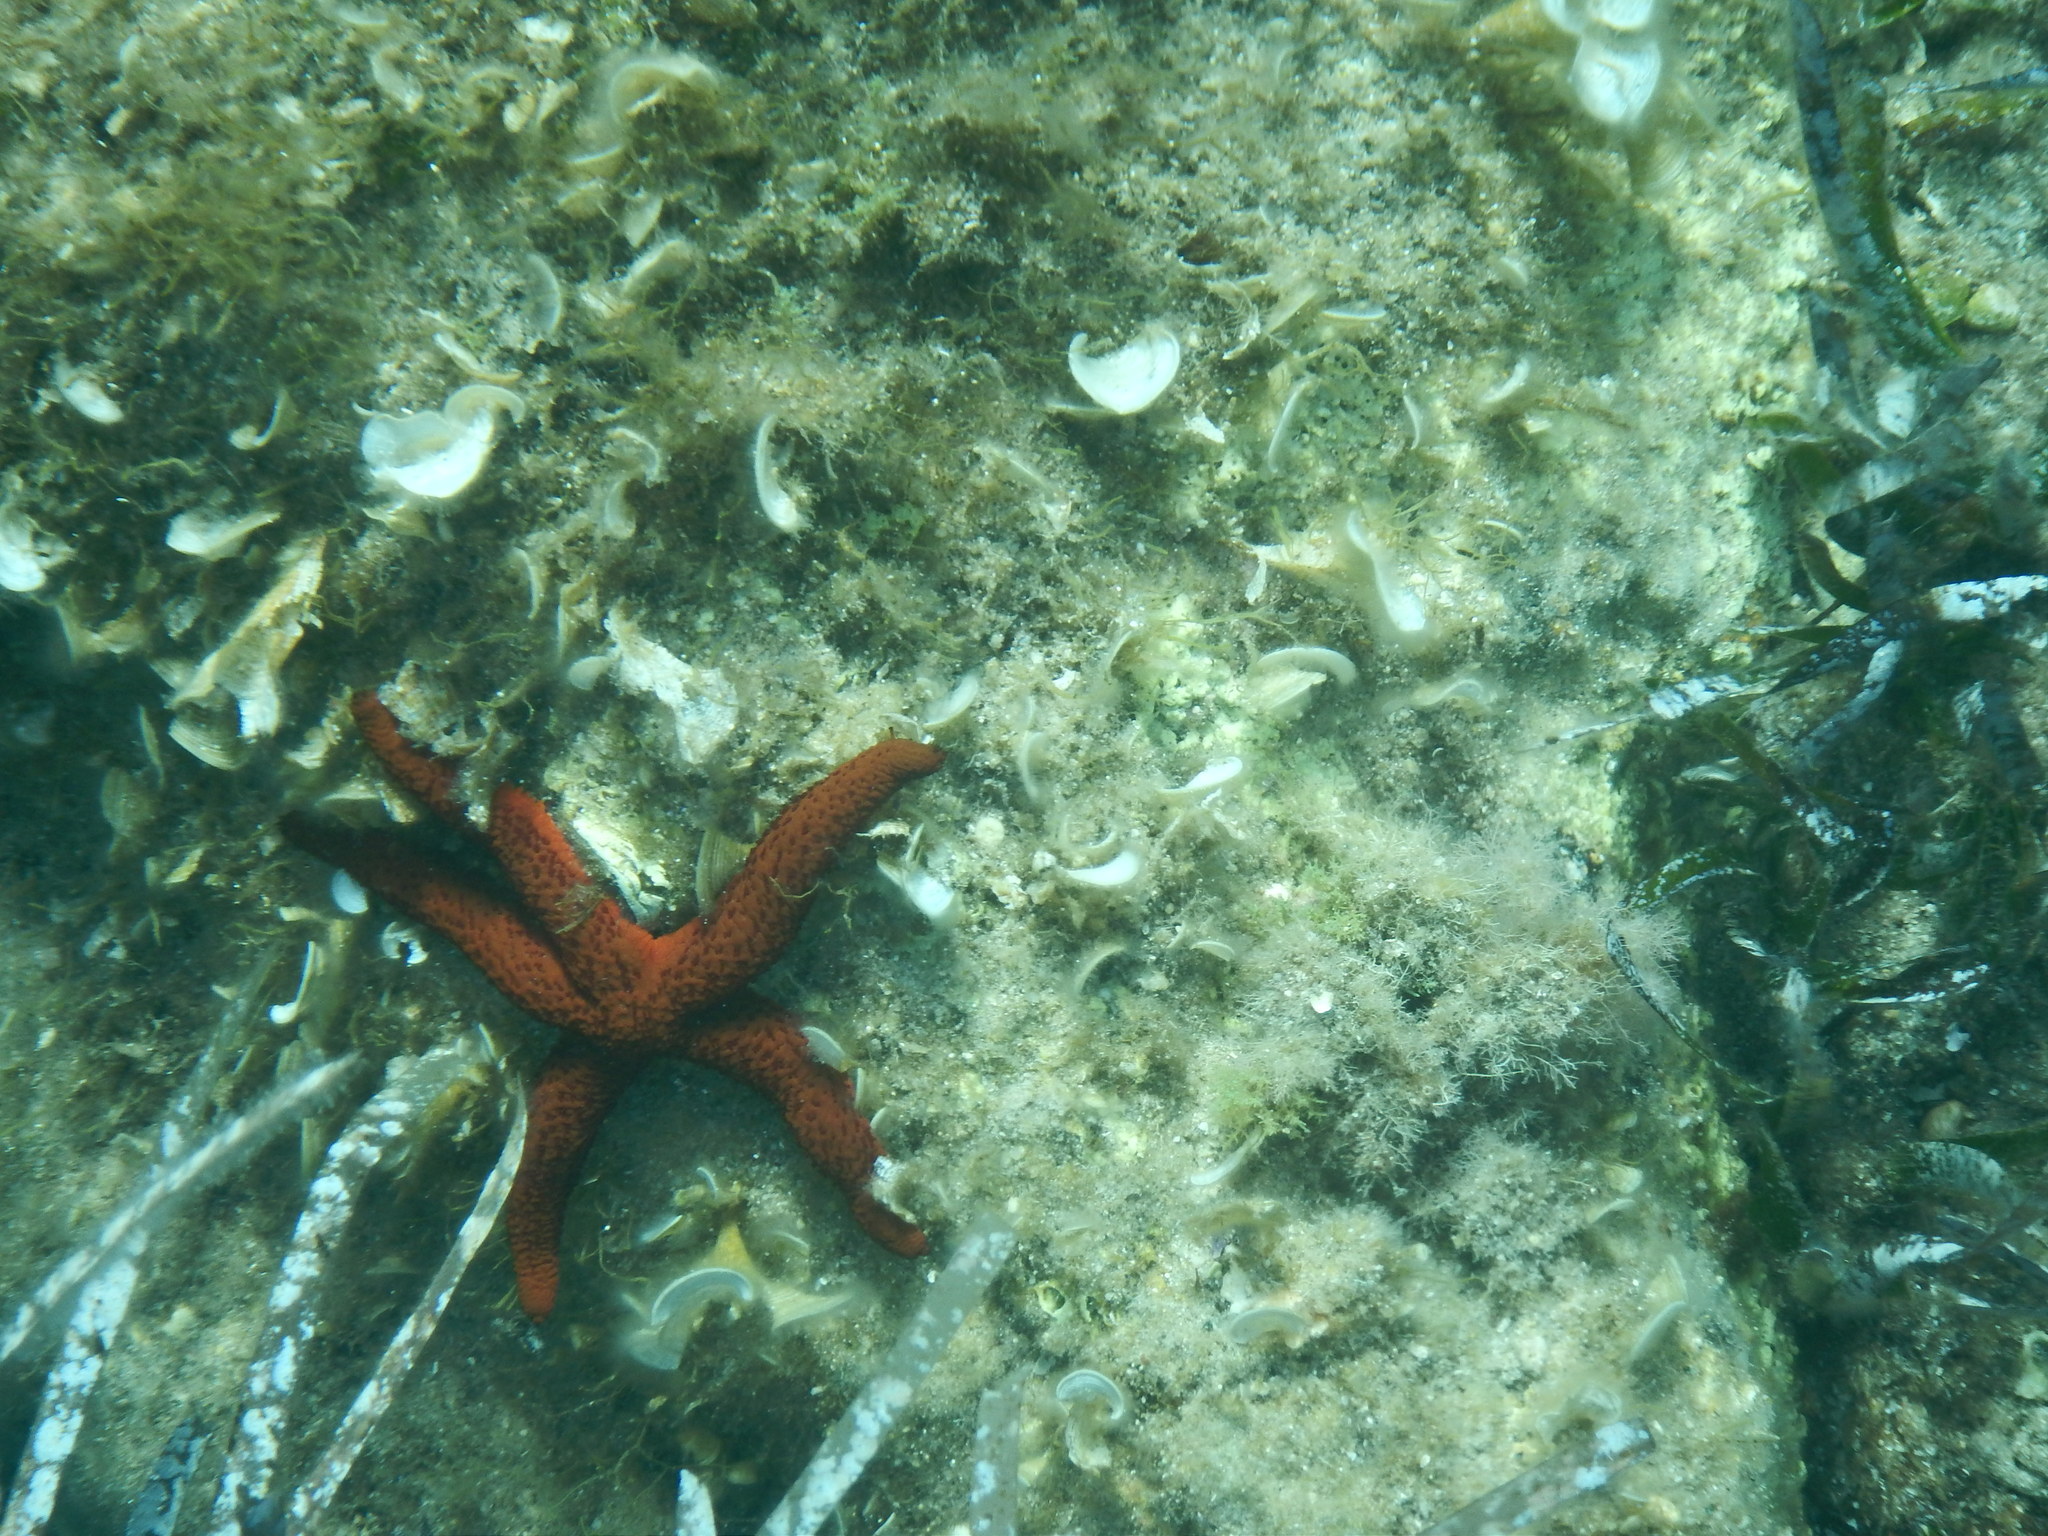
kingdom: Animalia
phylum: Echinodermata
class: Asteroidea
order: Spinulosida
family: Echinasteridae
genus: Echinaster
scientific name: Echinaster sepositus
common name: Red starfish
